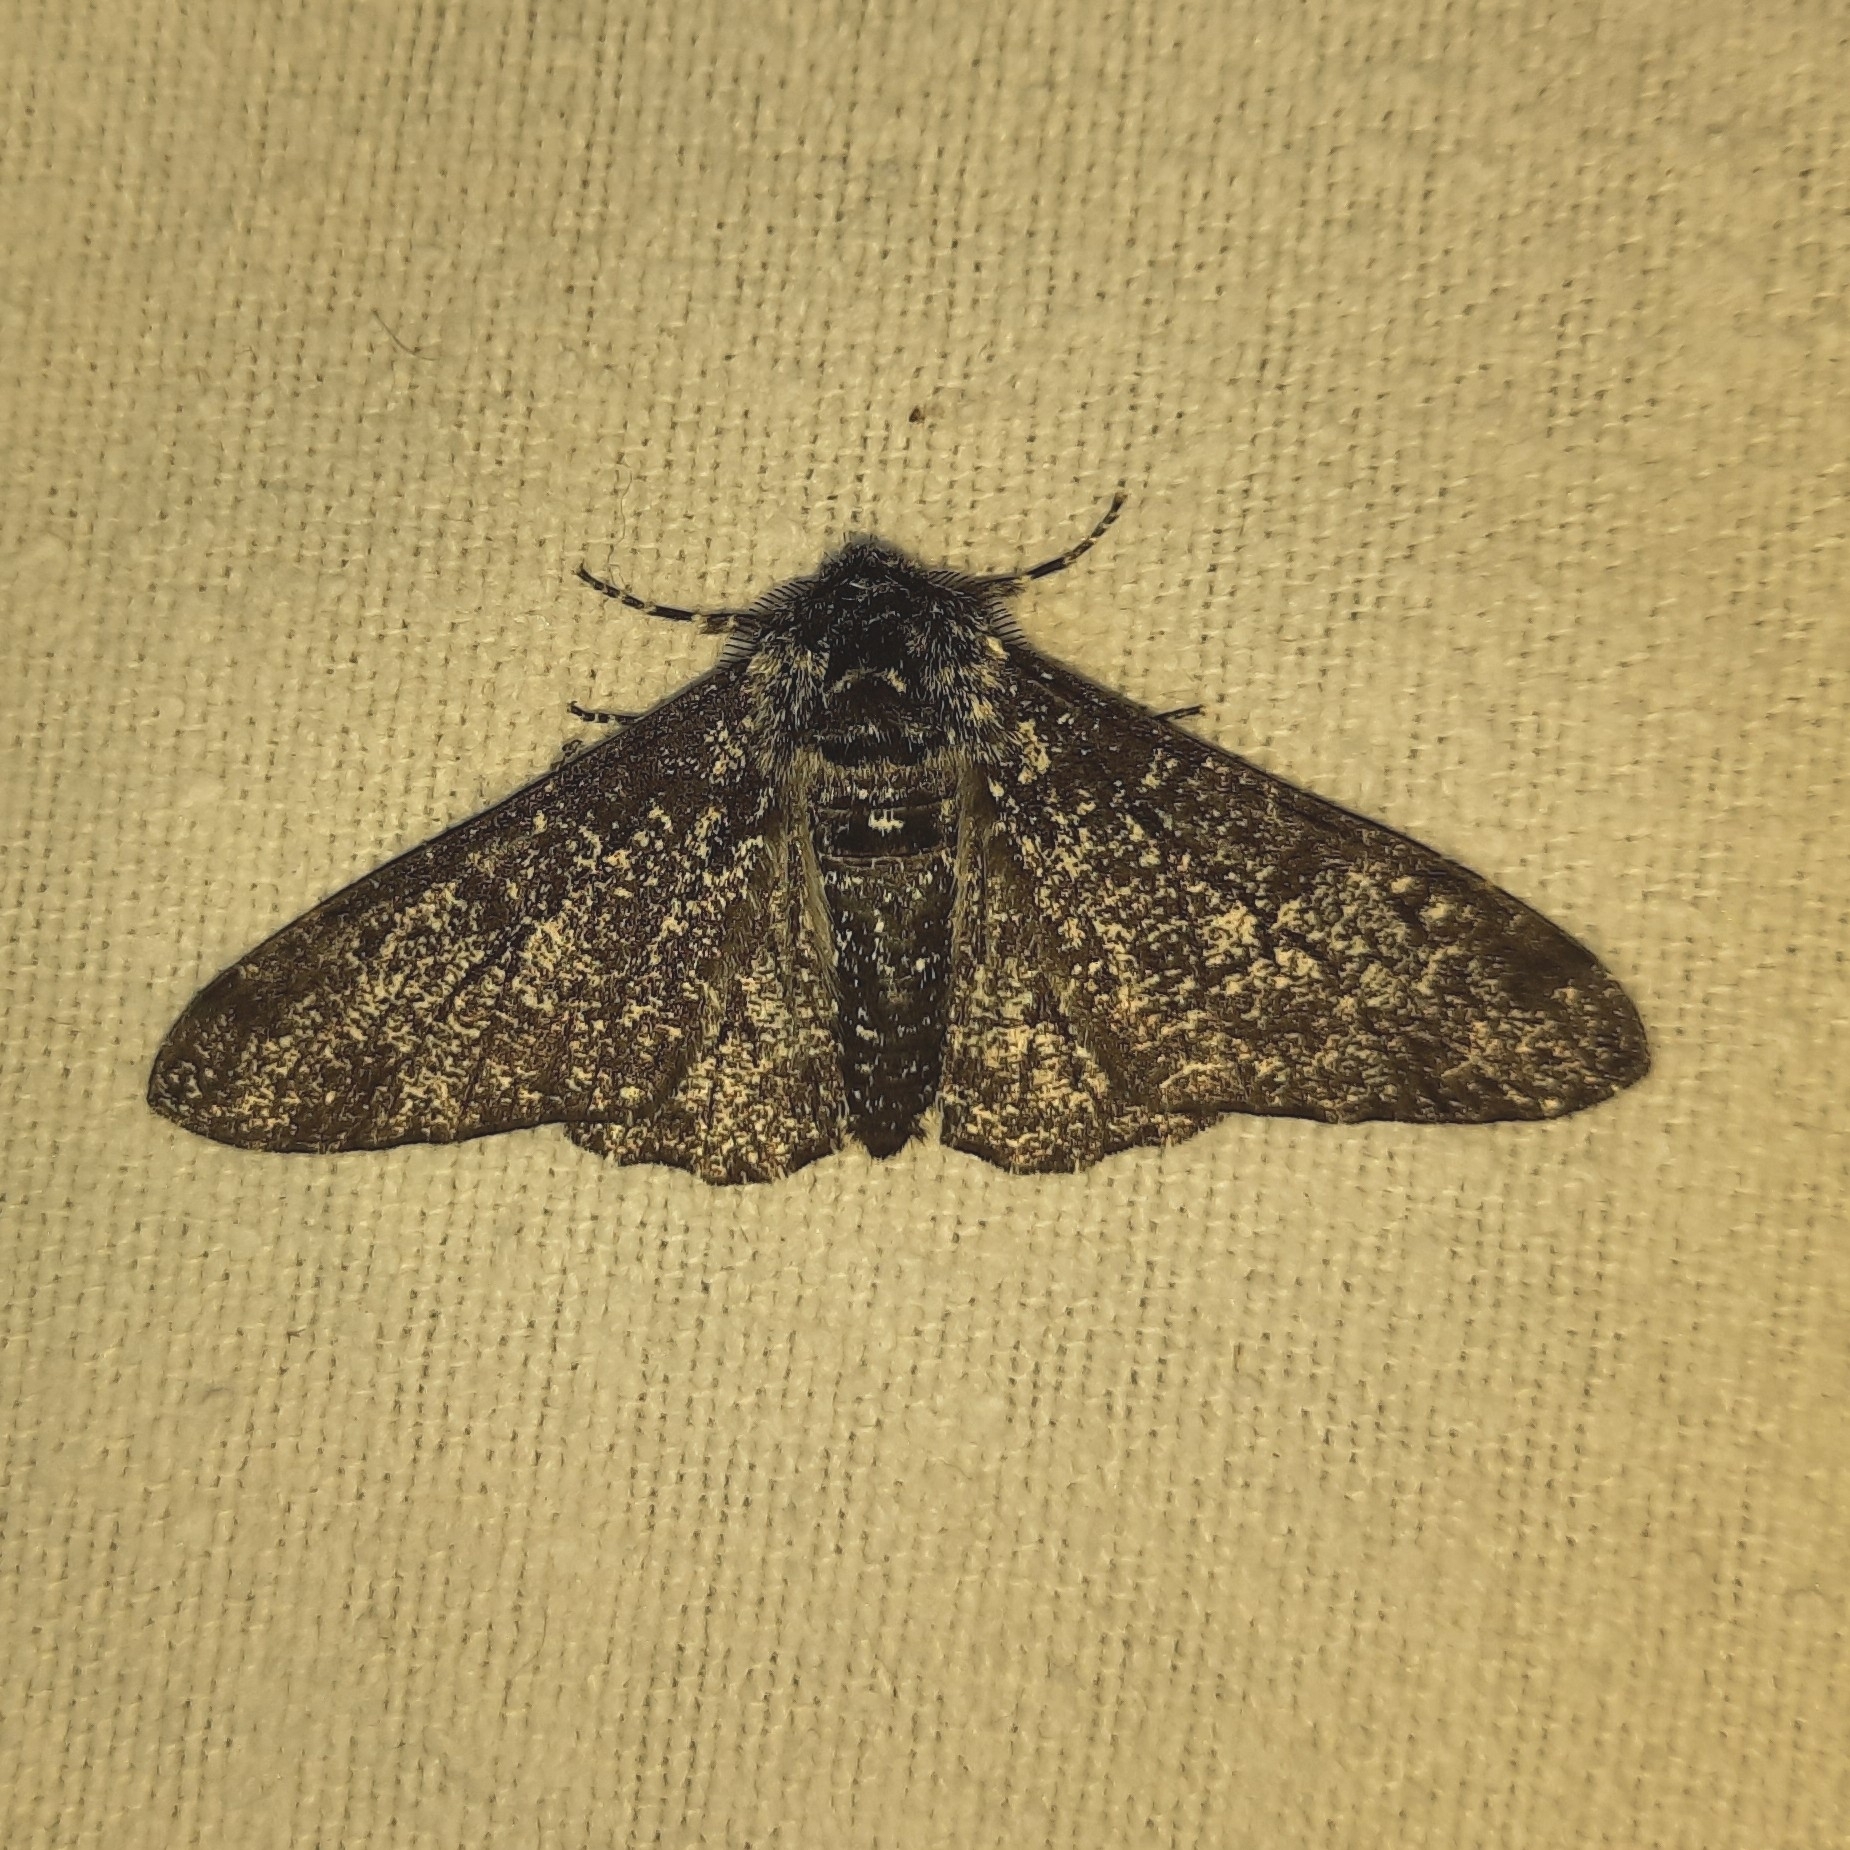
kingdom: Animalia
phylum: Arthropoda
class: Insecta
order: Lepidoptera
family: Geometridae
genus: Biston
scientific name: Biston betularia
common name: Peppered moth
